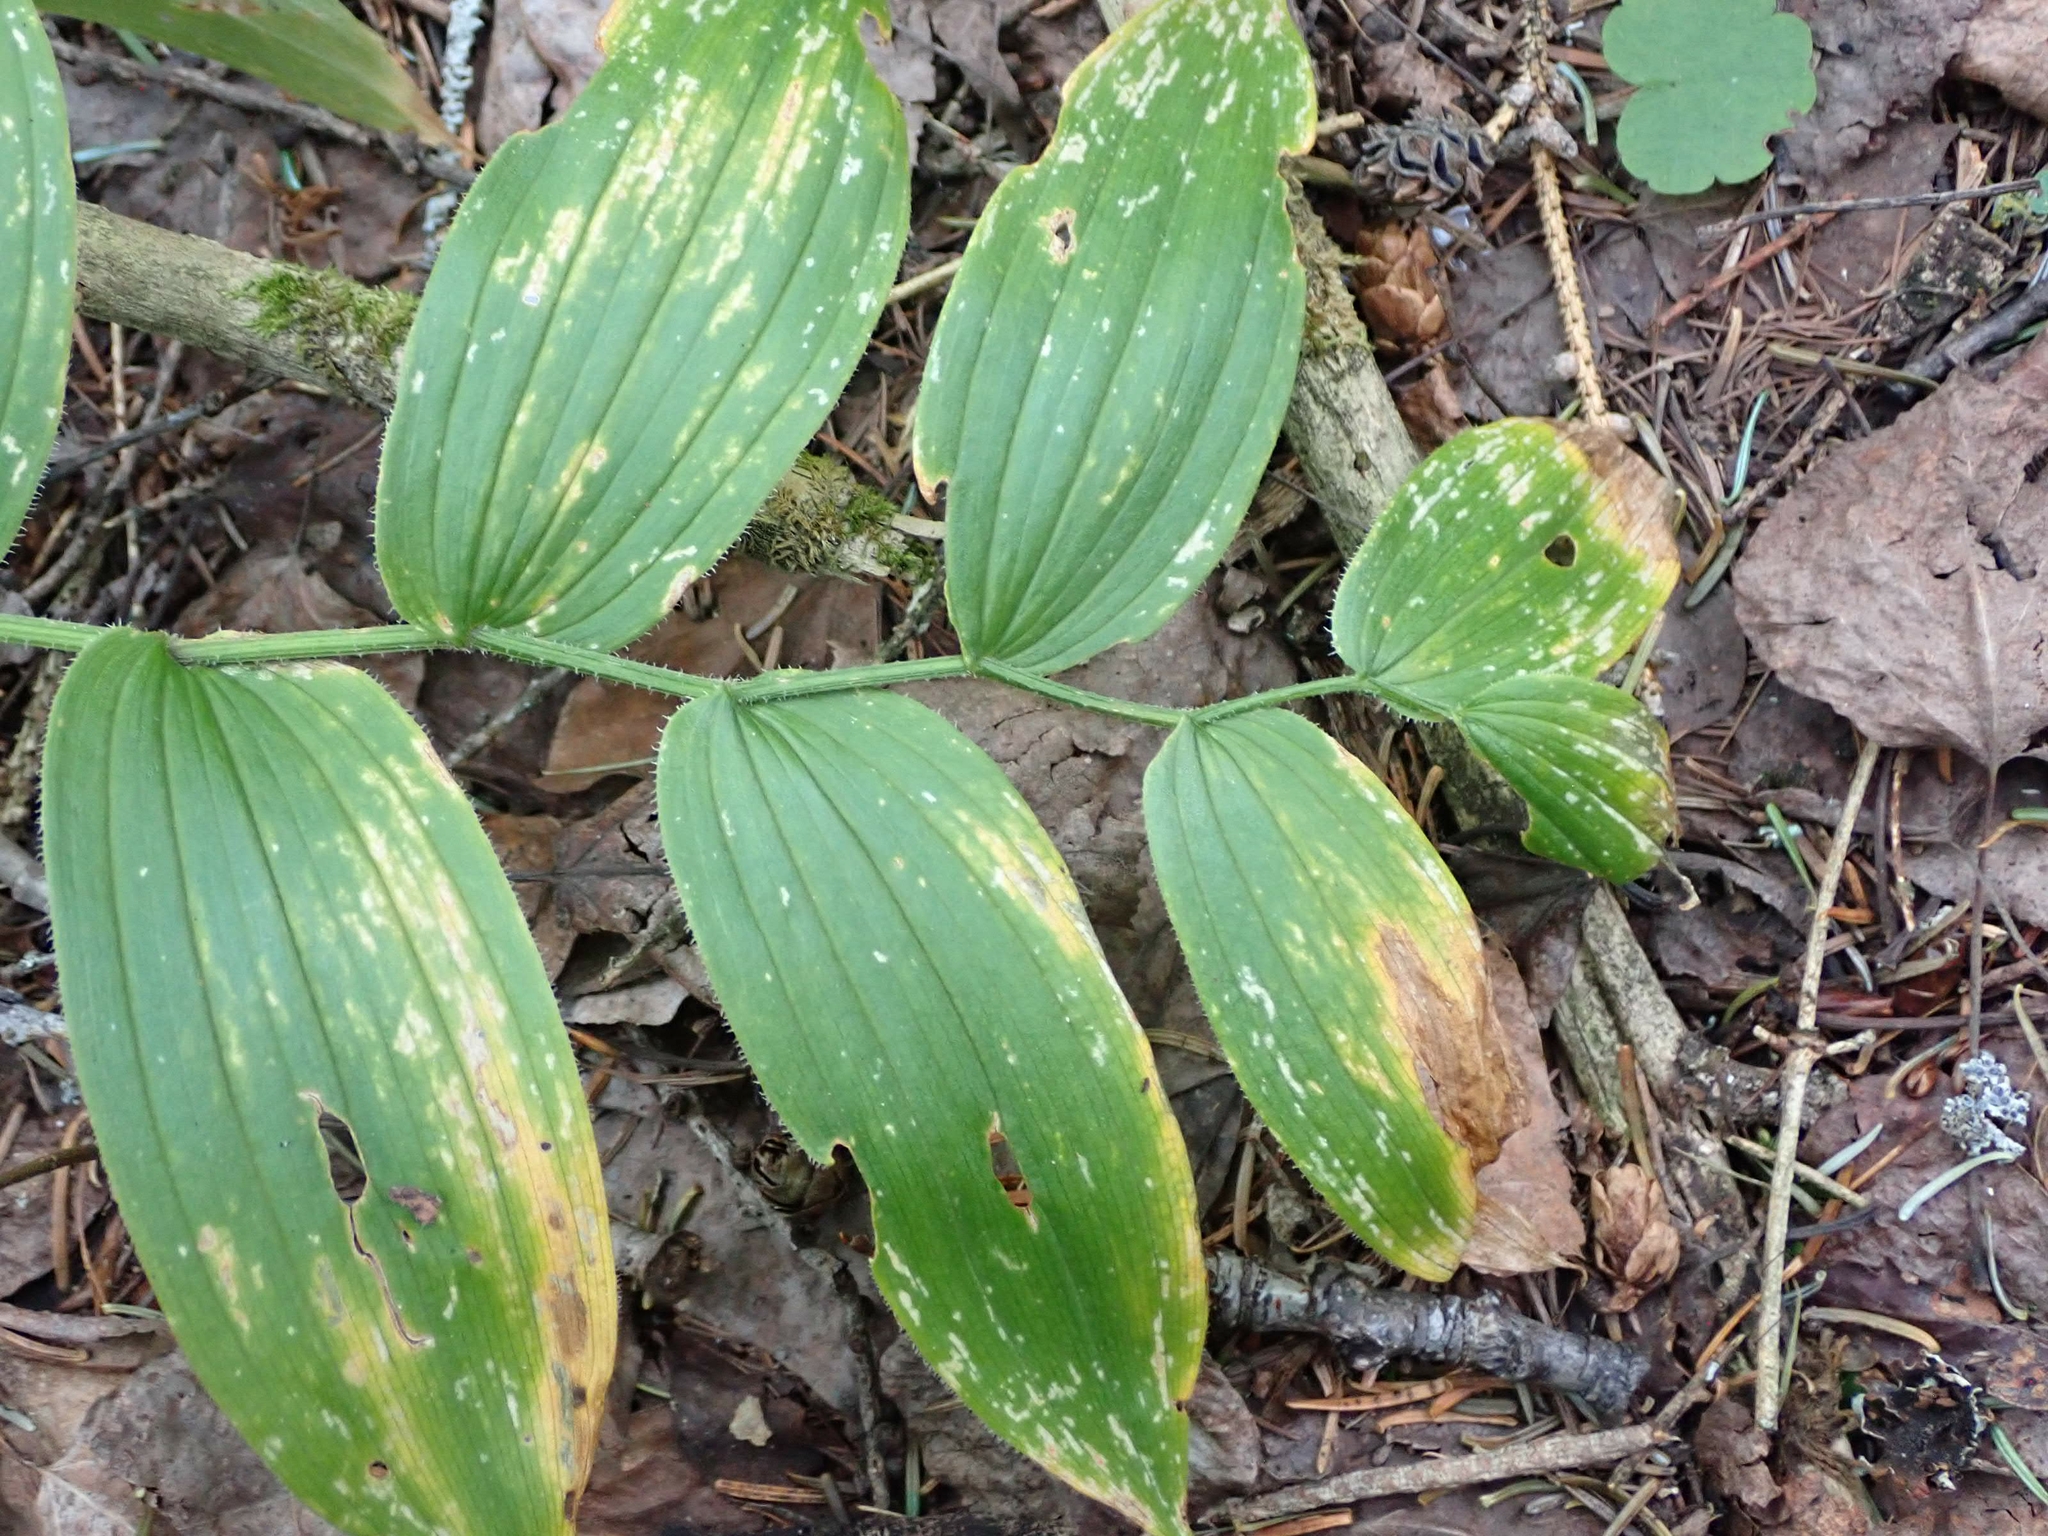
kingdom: Plantae
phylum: Tracheophyta
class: Liliopsida
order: Liliales
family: Liliaceae
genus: Streptopus
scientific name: Streptopus lanceolatus
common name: Rose mandarin
